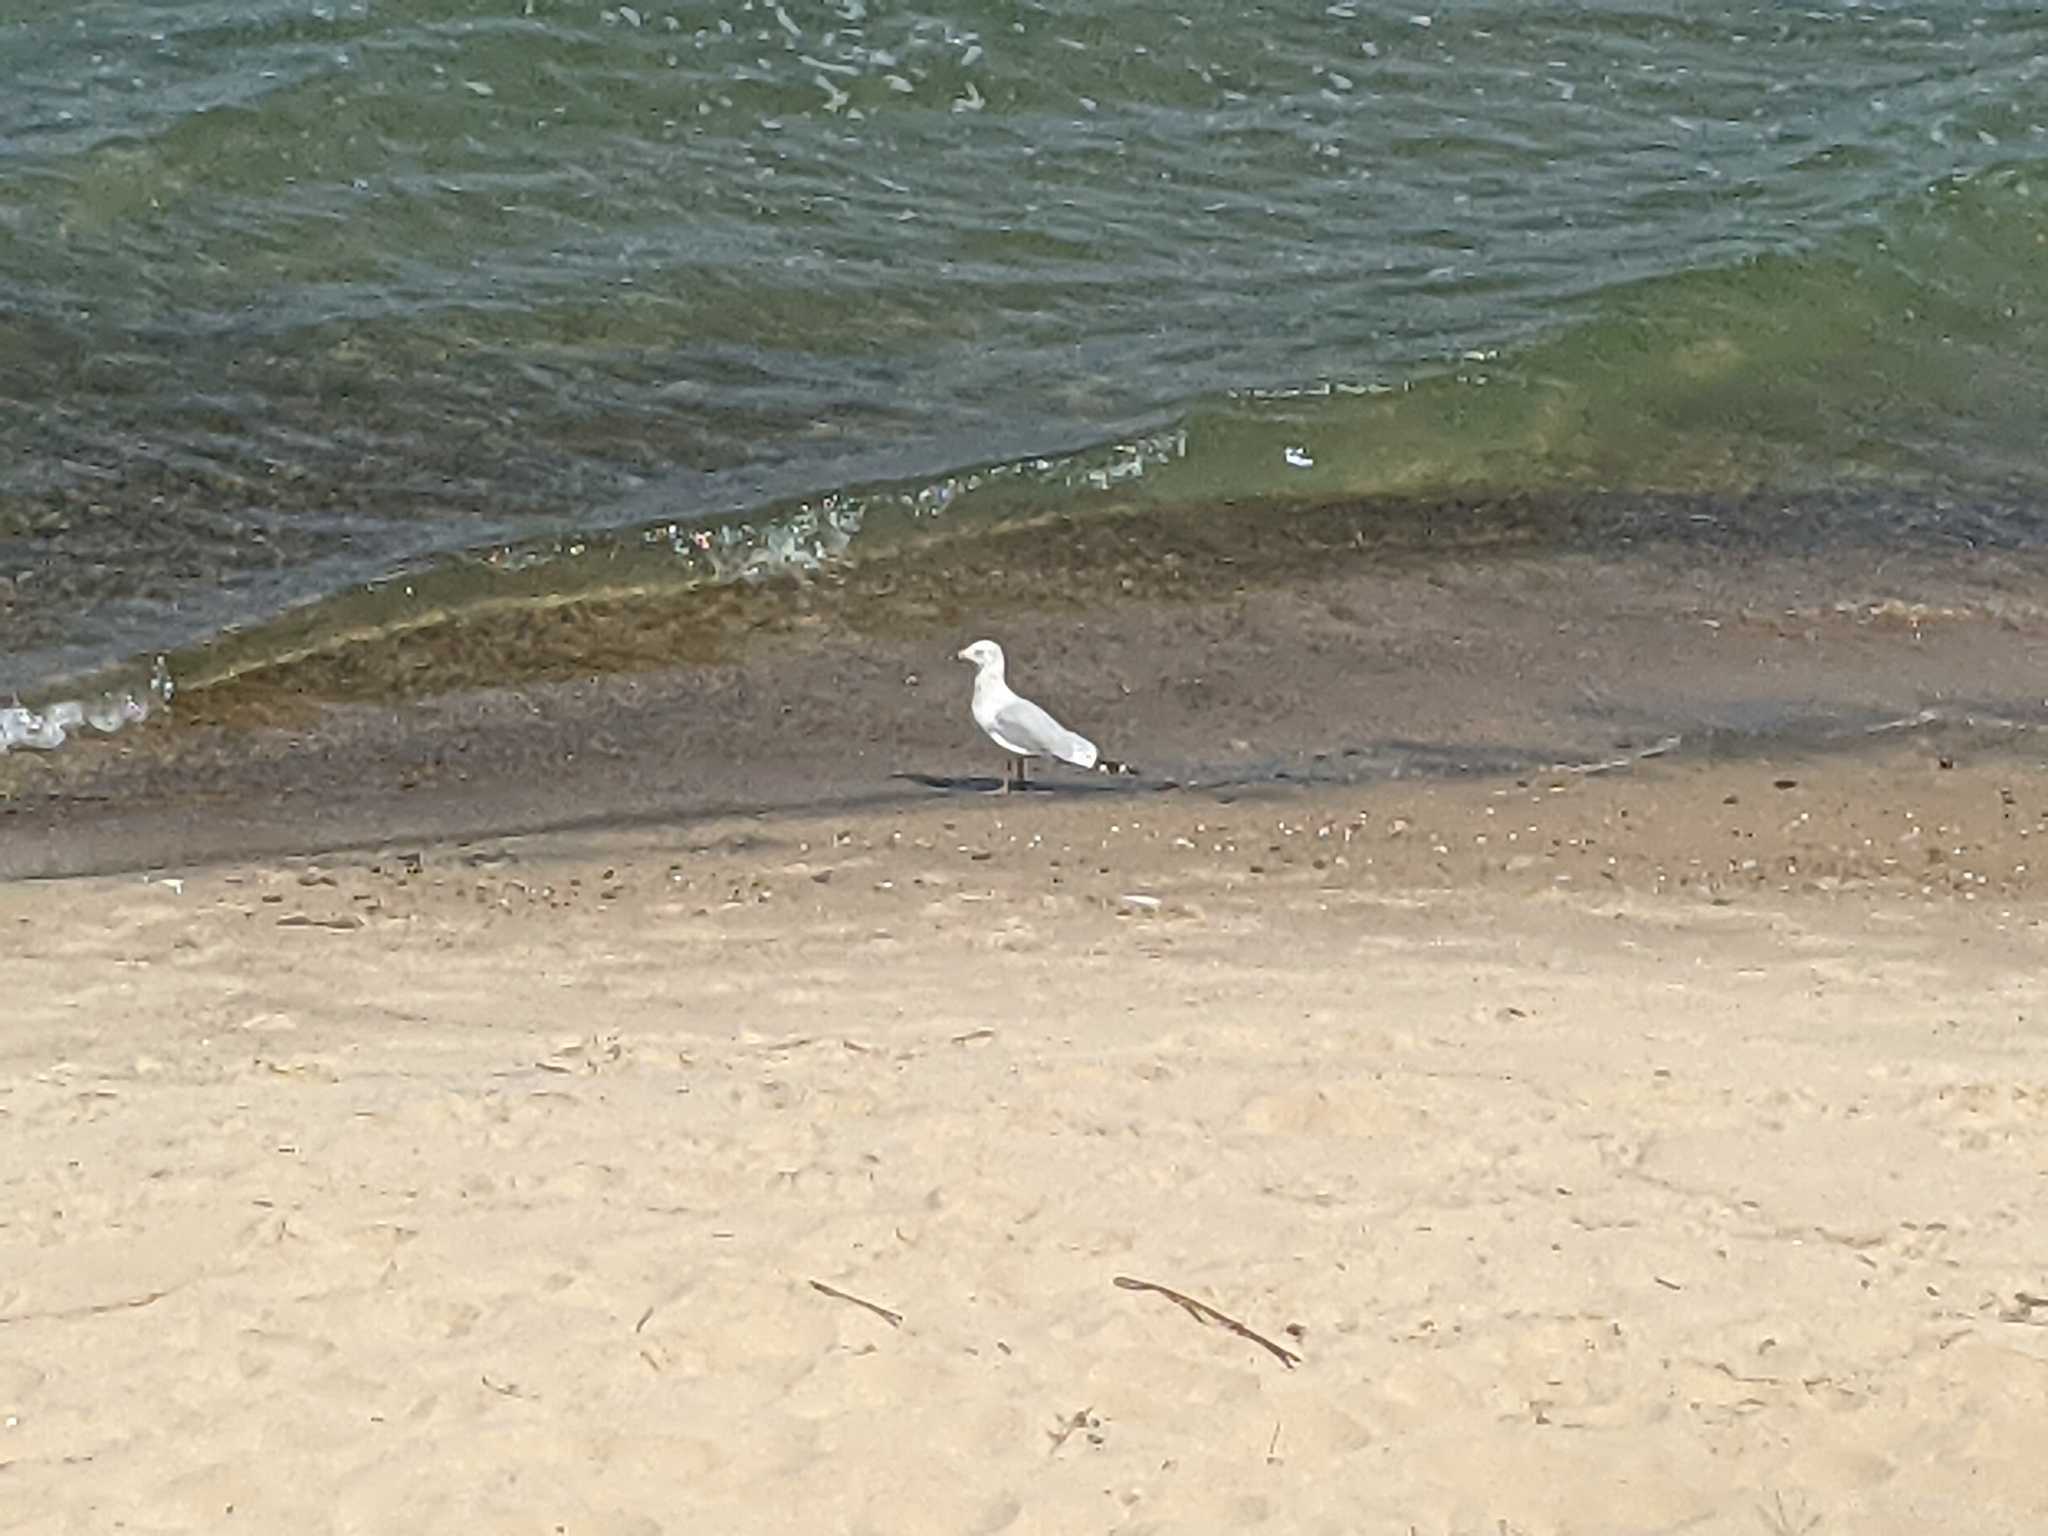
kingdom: Animalia
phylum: Chordata
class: Aves
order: Charadriiformes
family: Laridae
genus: Larus
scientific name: Larus delawarensis
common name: Ring-billed gull
